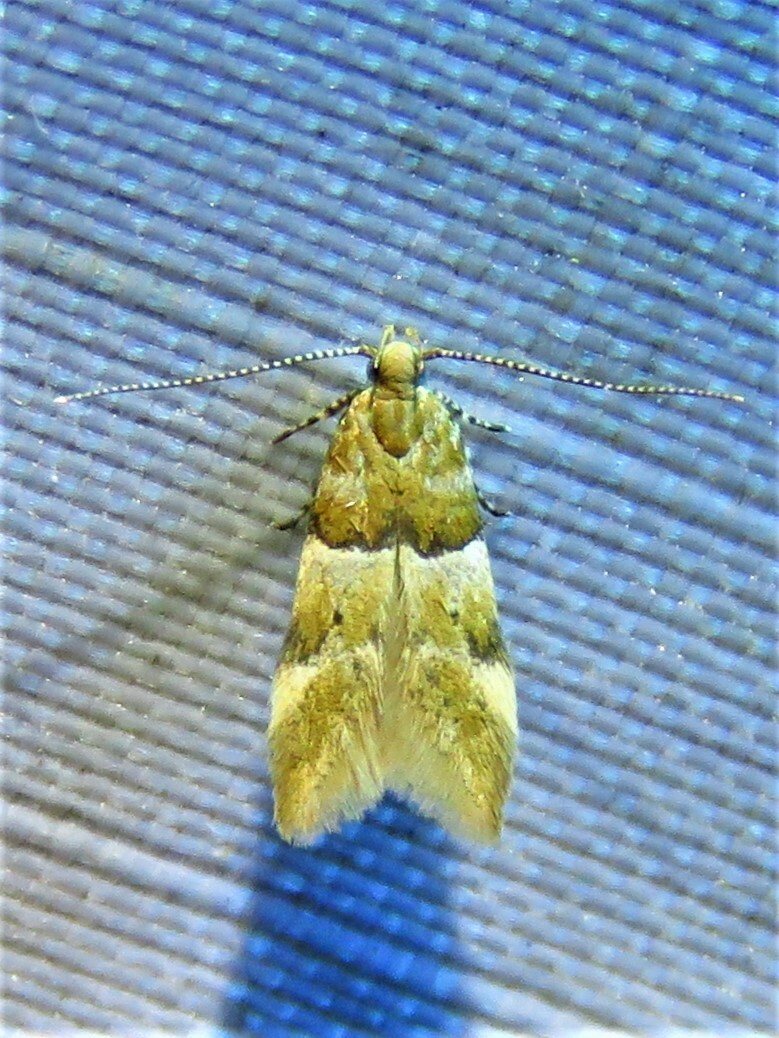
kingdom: Animalia
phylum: Arthropoda
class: Insecta
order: Lepidoptera
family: Gelechiidae
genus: Theisoa
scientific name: Theisoa constrictella
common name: Constricted twirler
